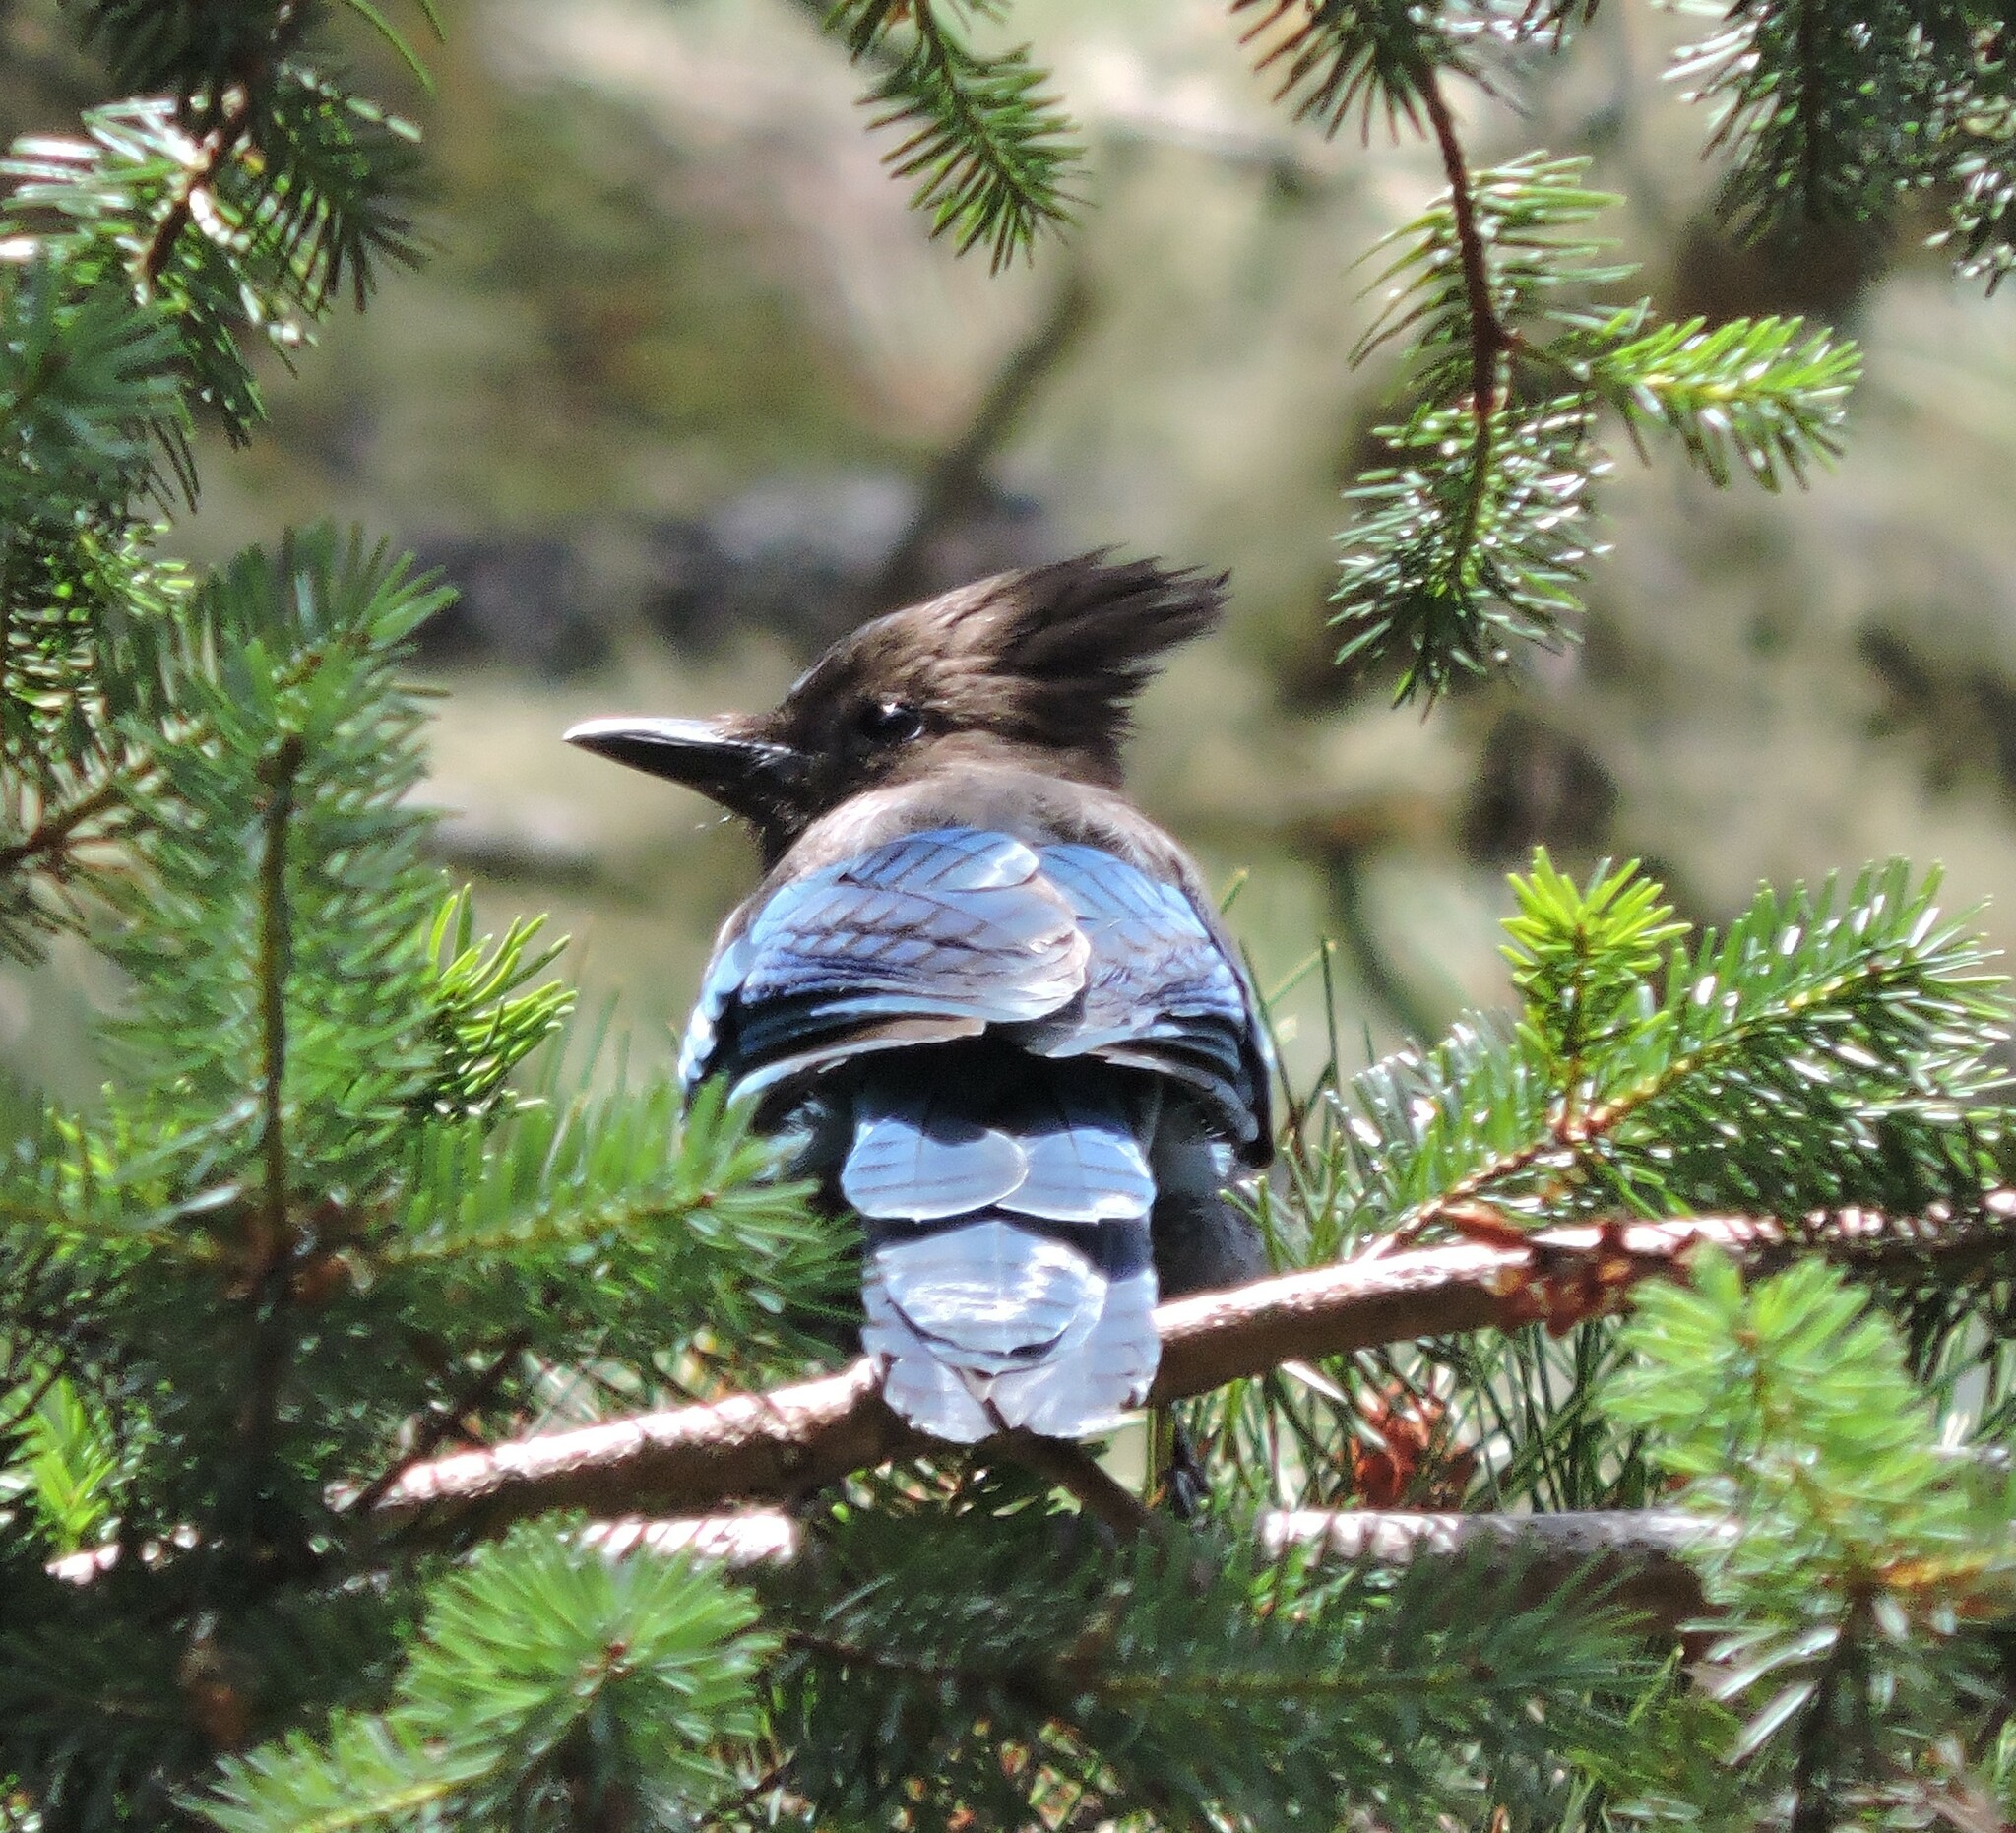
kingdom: Animalia
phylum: Chordata
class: Aves
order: Passeriformes
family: Corvidae
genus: Cyanocitta
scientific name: Cyanocitta stelleri
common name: Steller's jay
